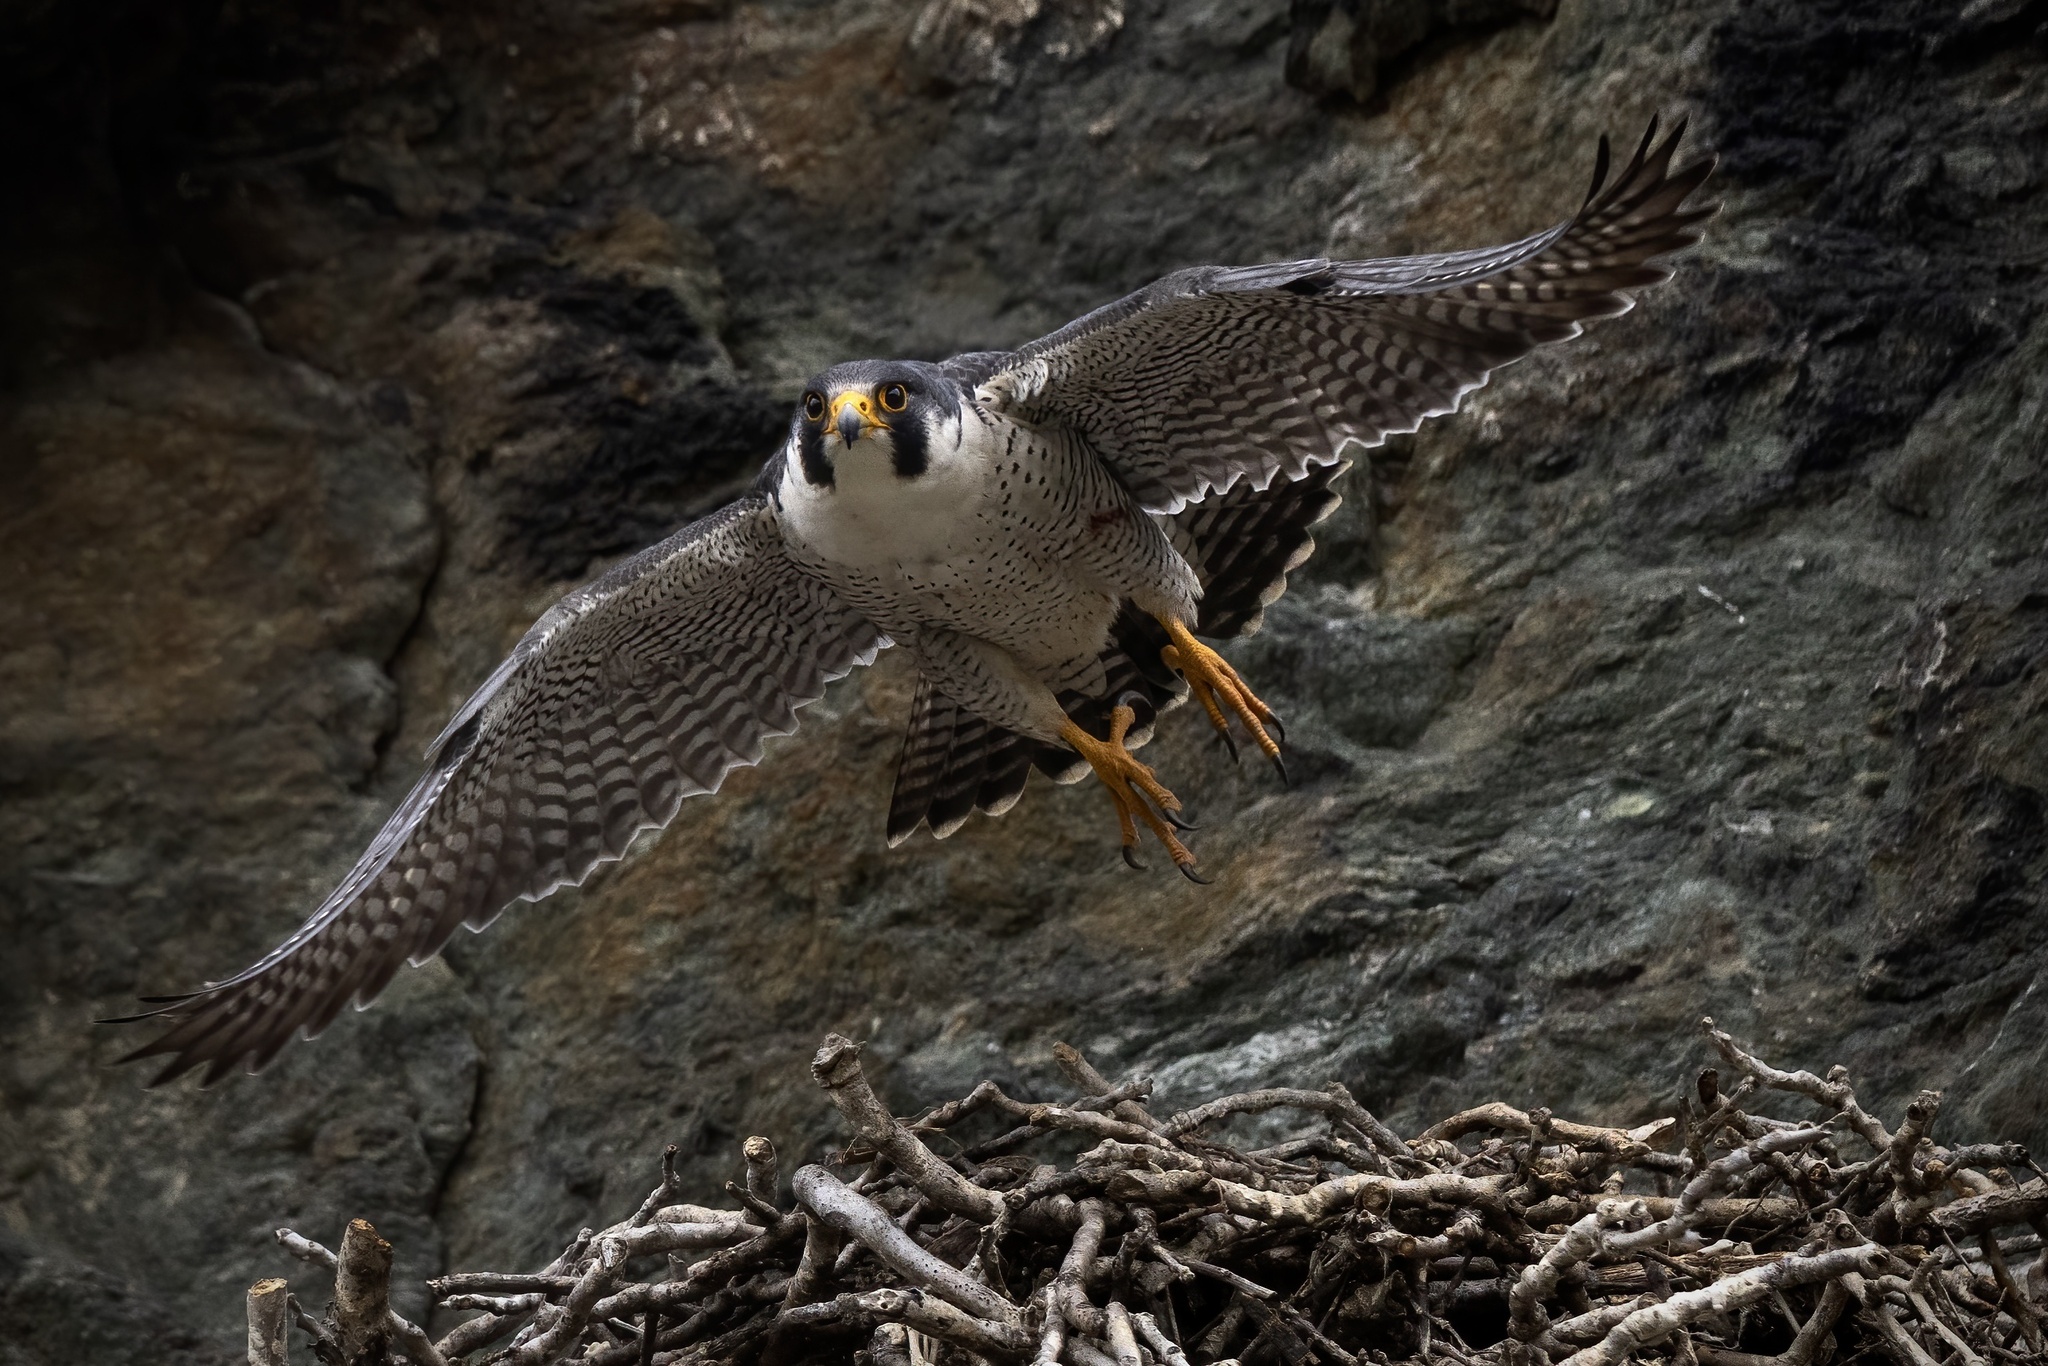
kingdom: Animalia
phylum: Chordata
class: Aves
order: Falconiformes
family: Falconidae
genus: Falco
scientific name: Falco peregrinus
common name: Peregrine falcon
